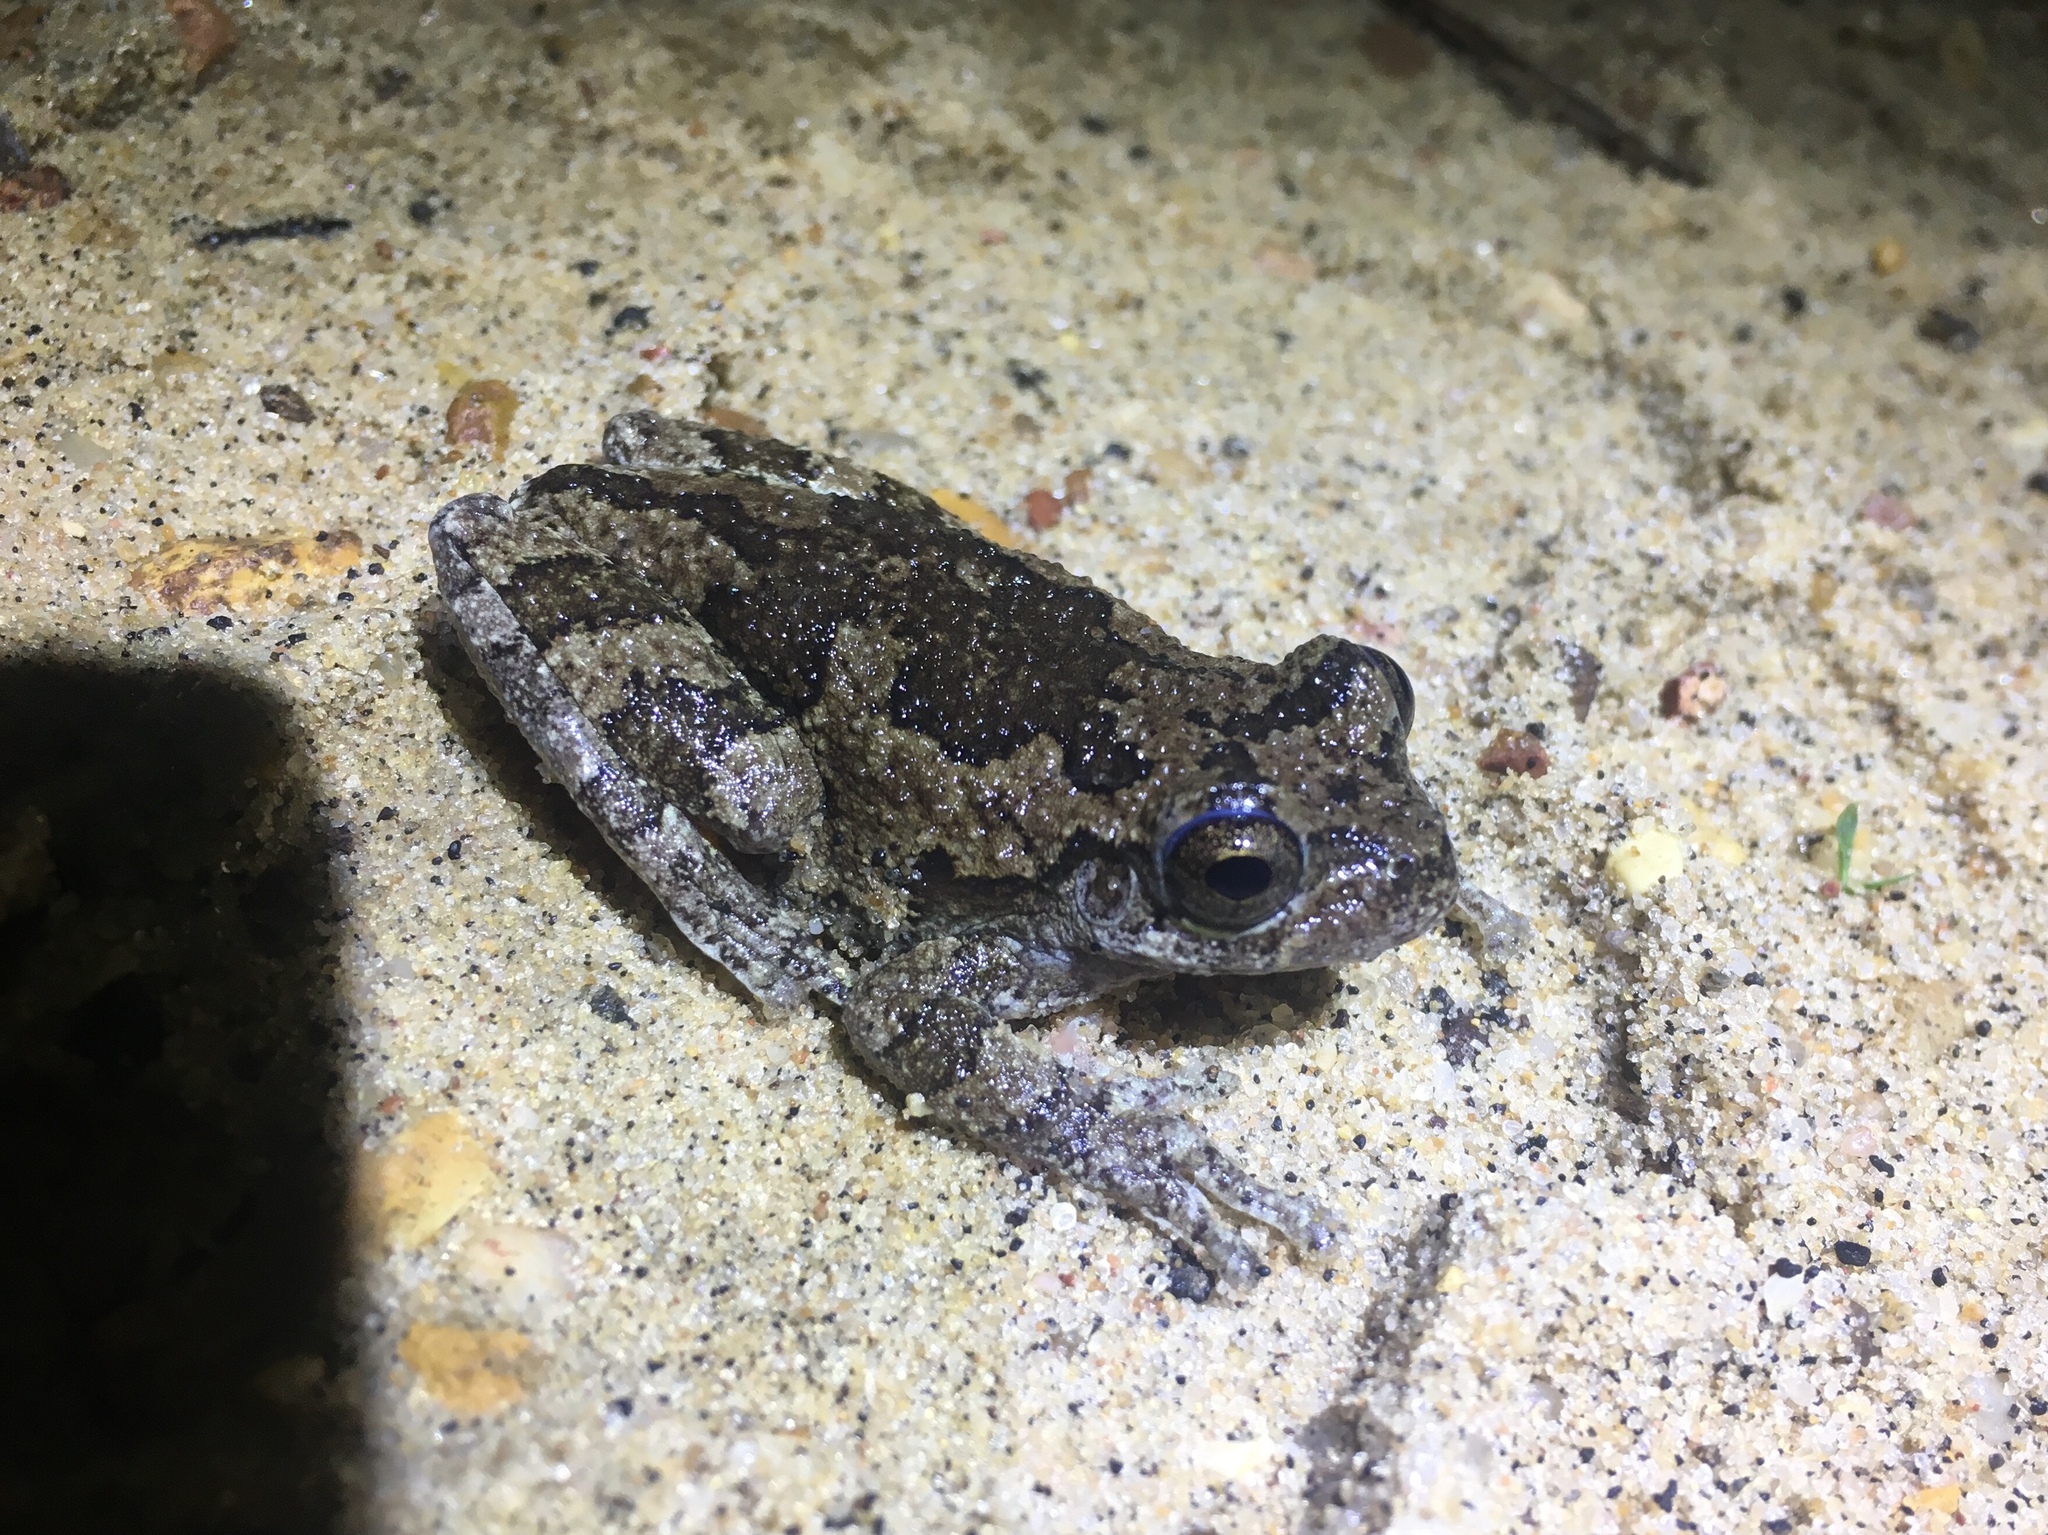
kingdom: Animalia
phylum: Chordata
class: Amphibia
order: Anura
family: Hylidae
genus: Dryophytes
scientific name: Dryophytes chrysoscelis
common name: Cope's gray treefrog
